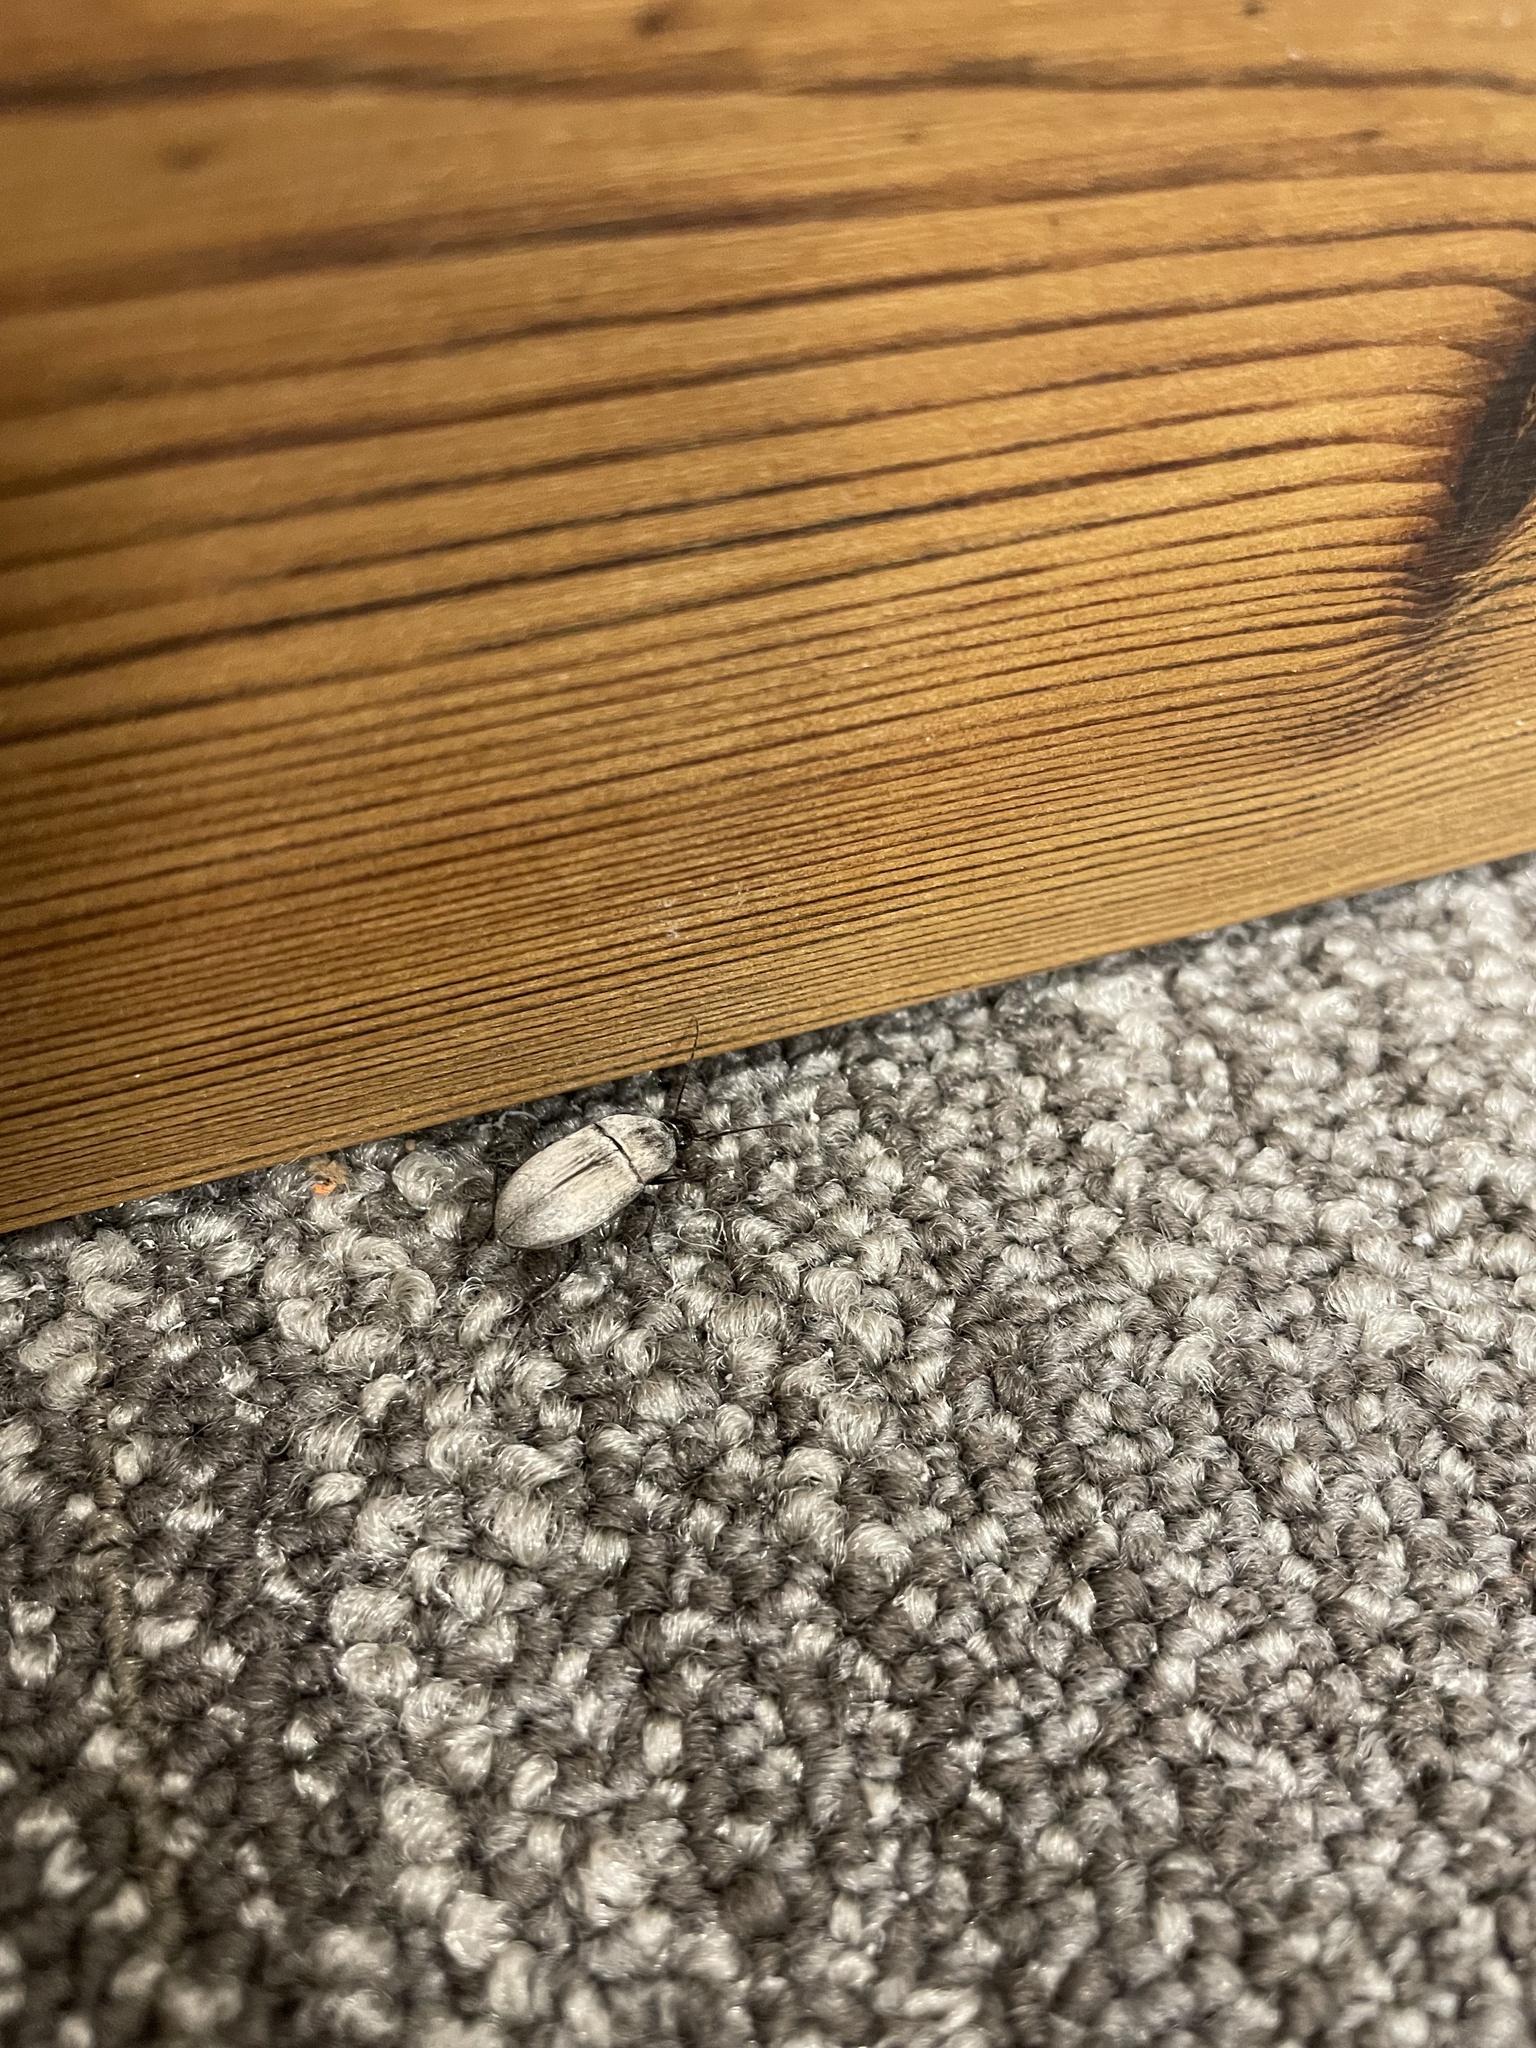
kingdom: Animalia
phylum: Arthropoda
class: Insecta
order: Coleoptera
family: Carabidae
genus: Chlaenius
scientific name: Chlaenius tomentosus
